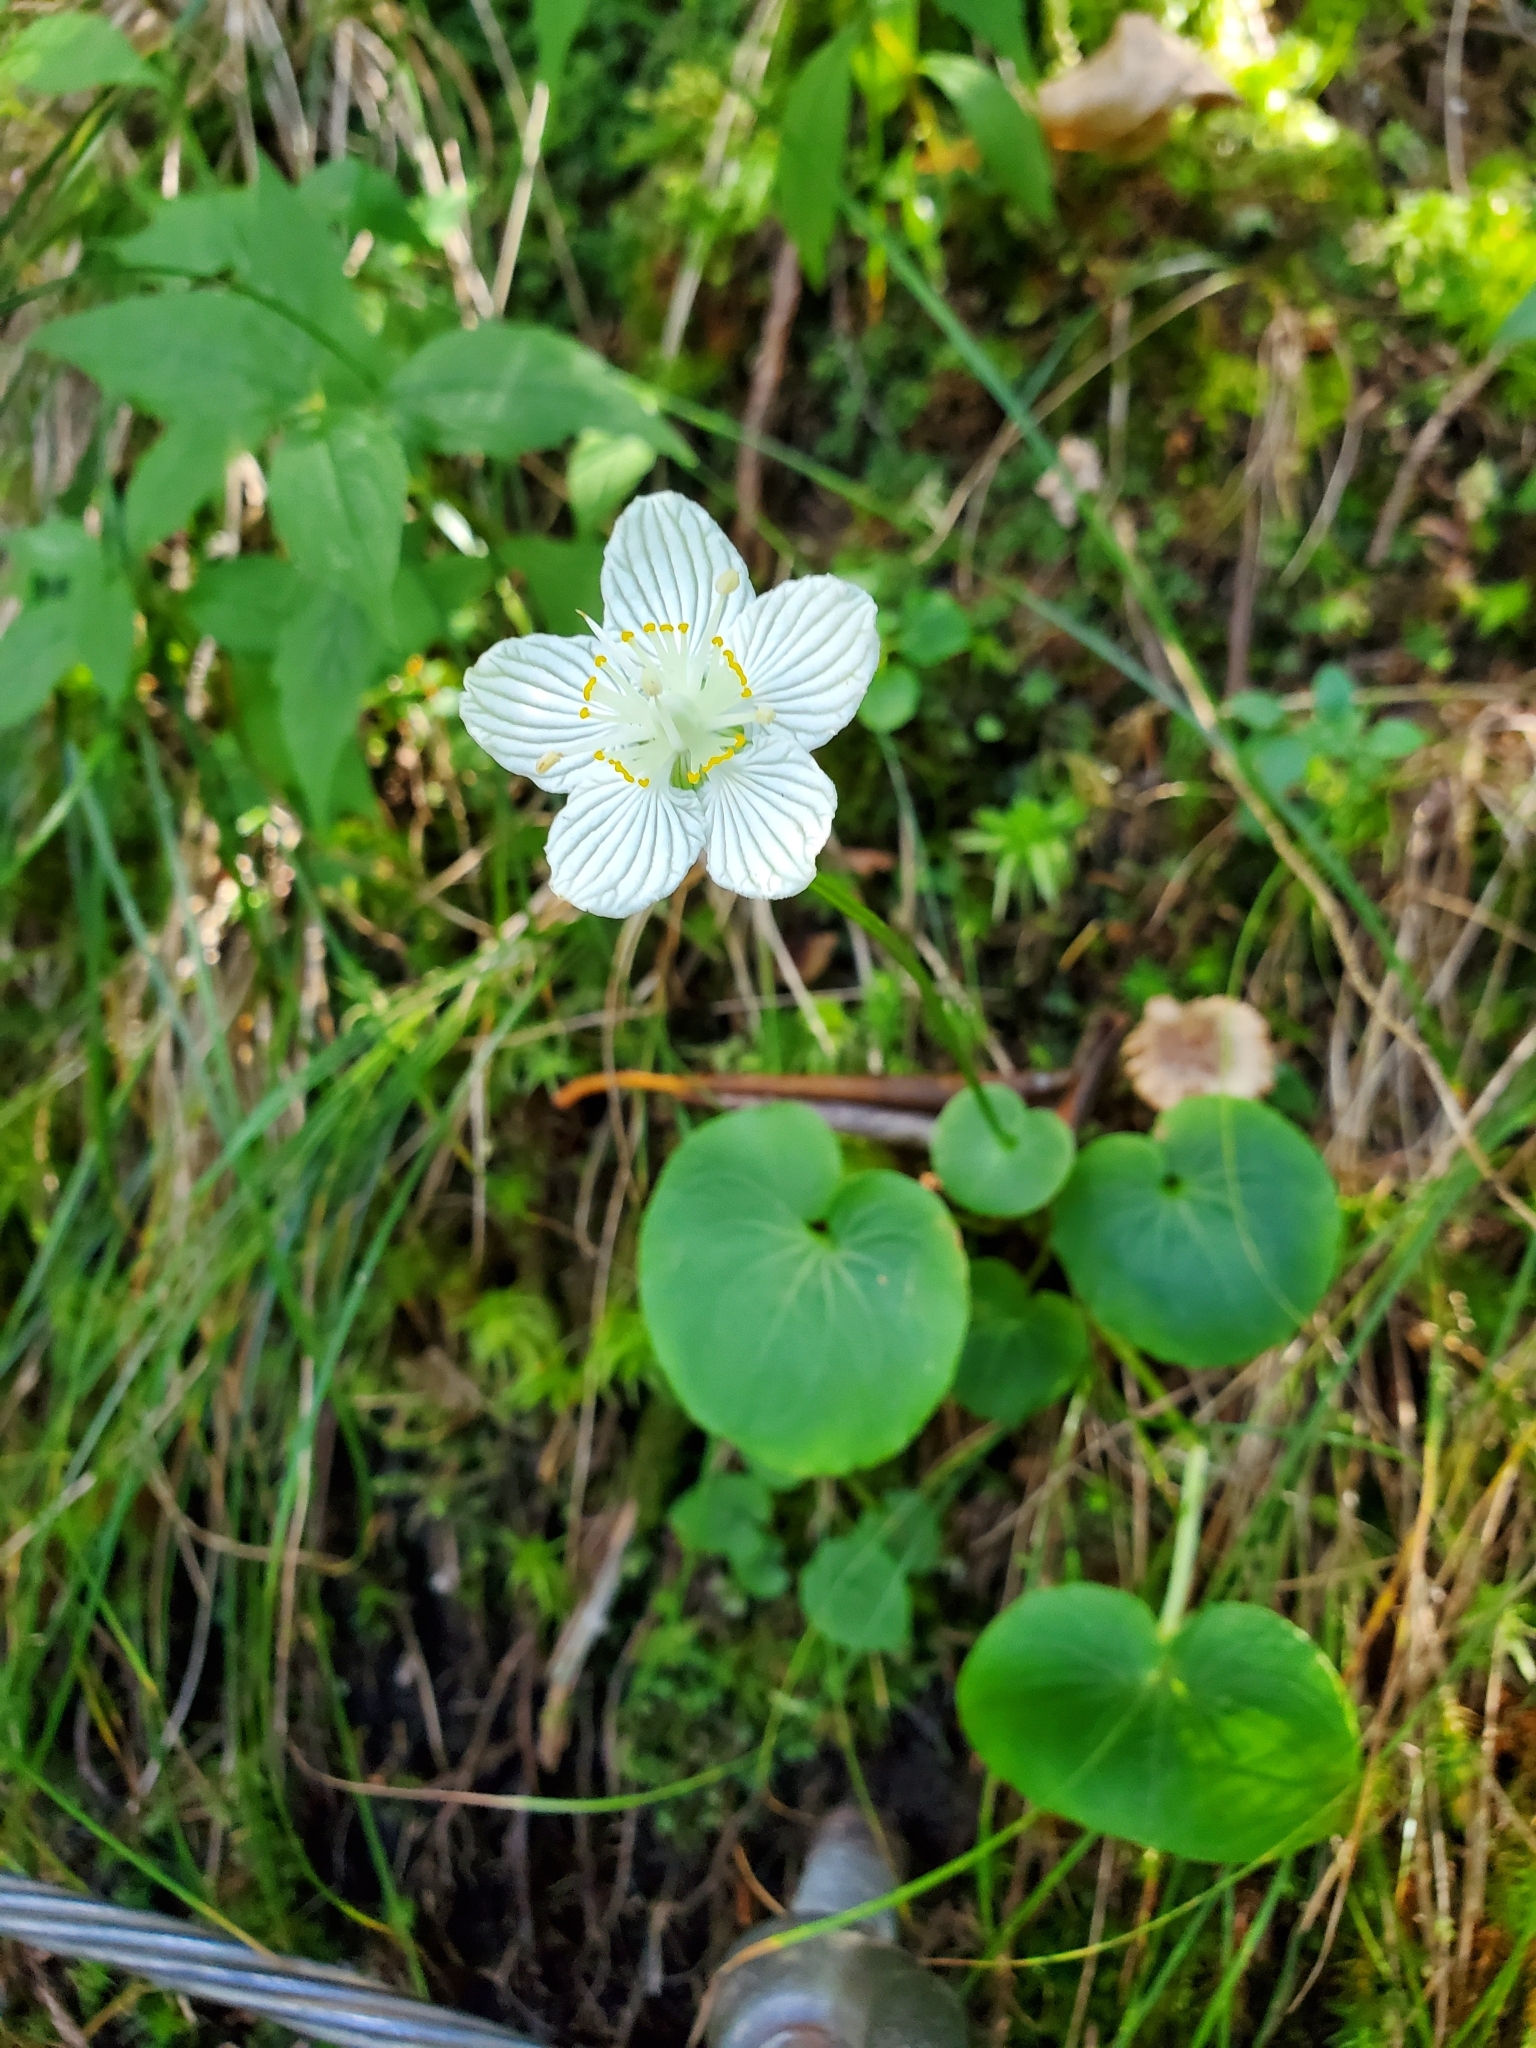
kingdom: Plantae
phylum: Tracheophyta
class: Magnoliopsida
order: Celastrales
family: Parnassiaceae
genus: Parnassia
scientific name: Parnassia asarifolia
